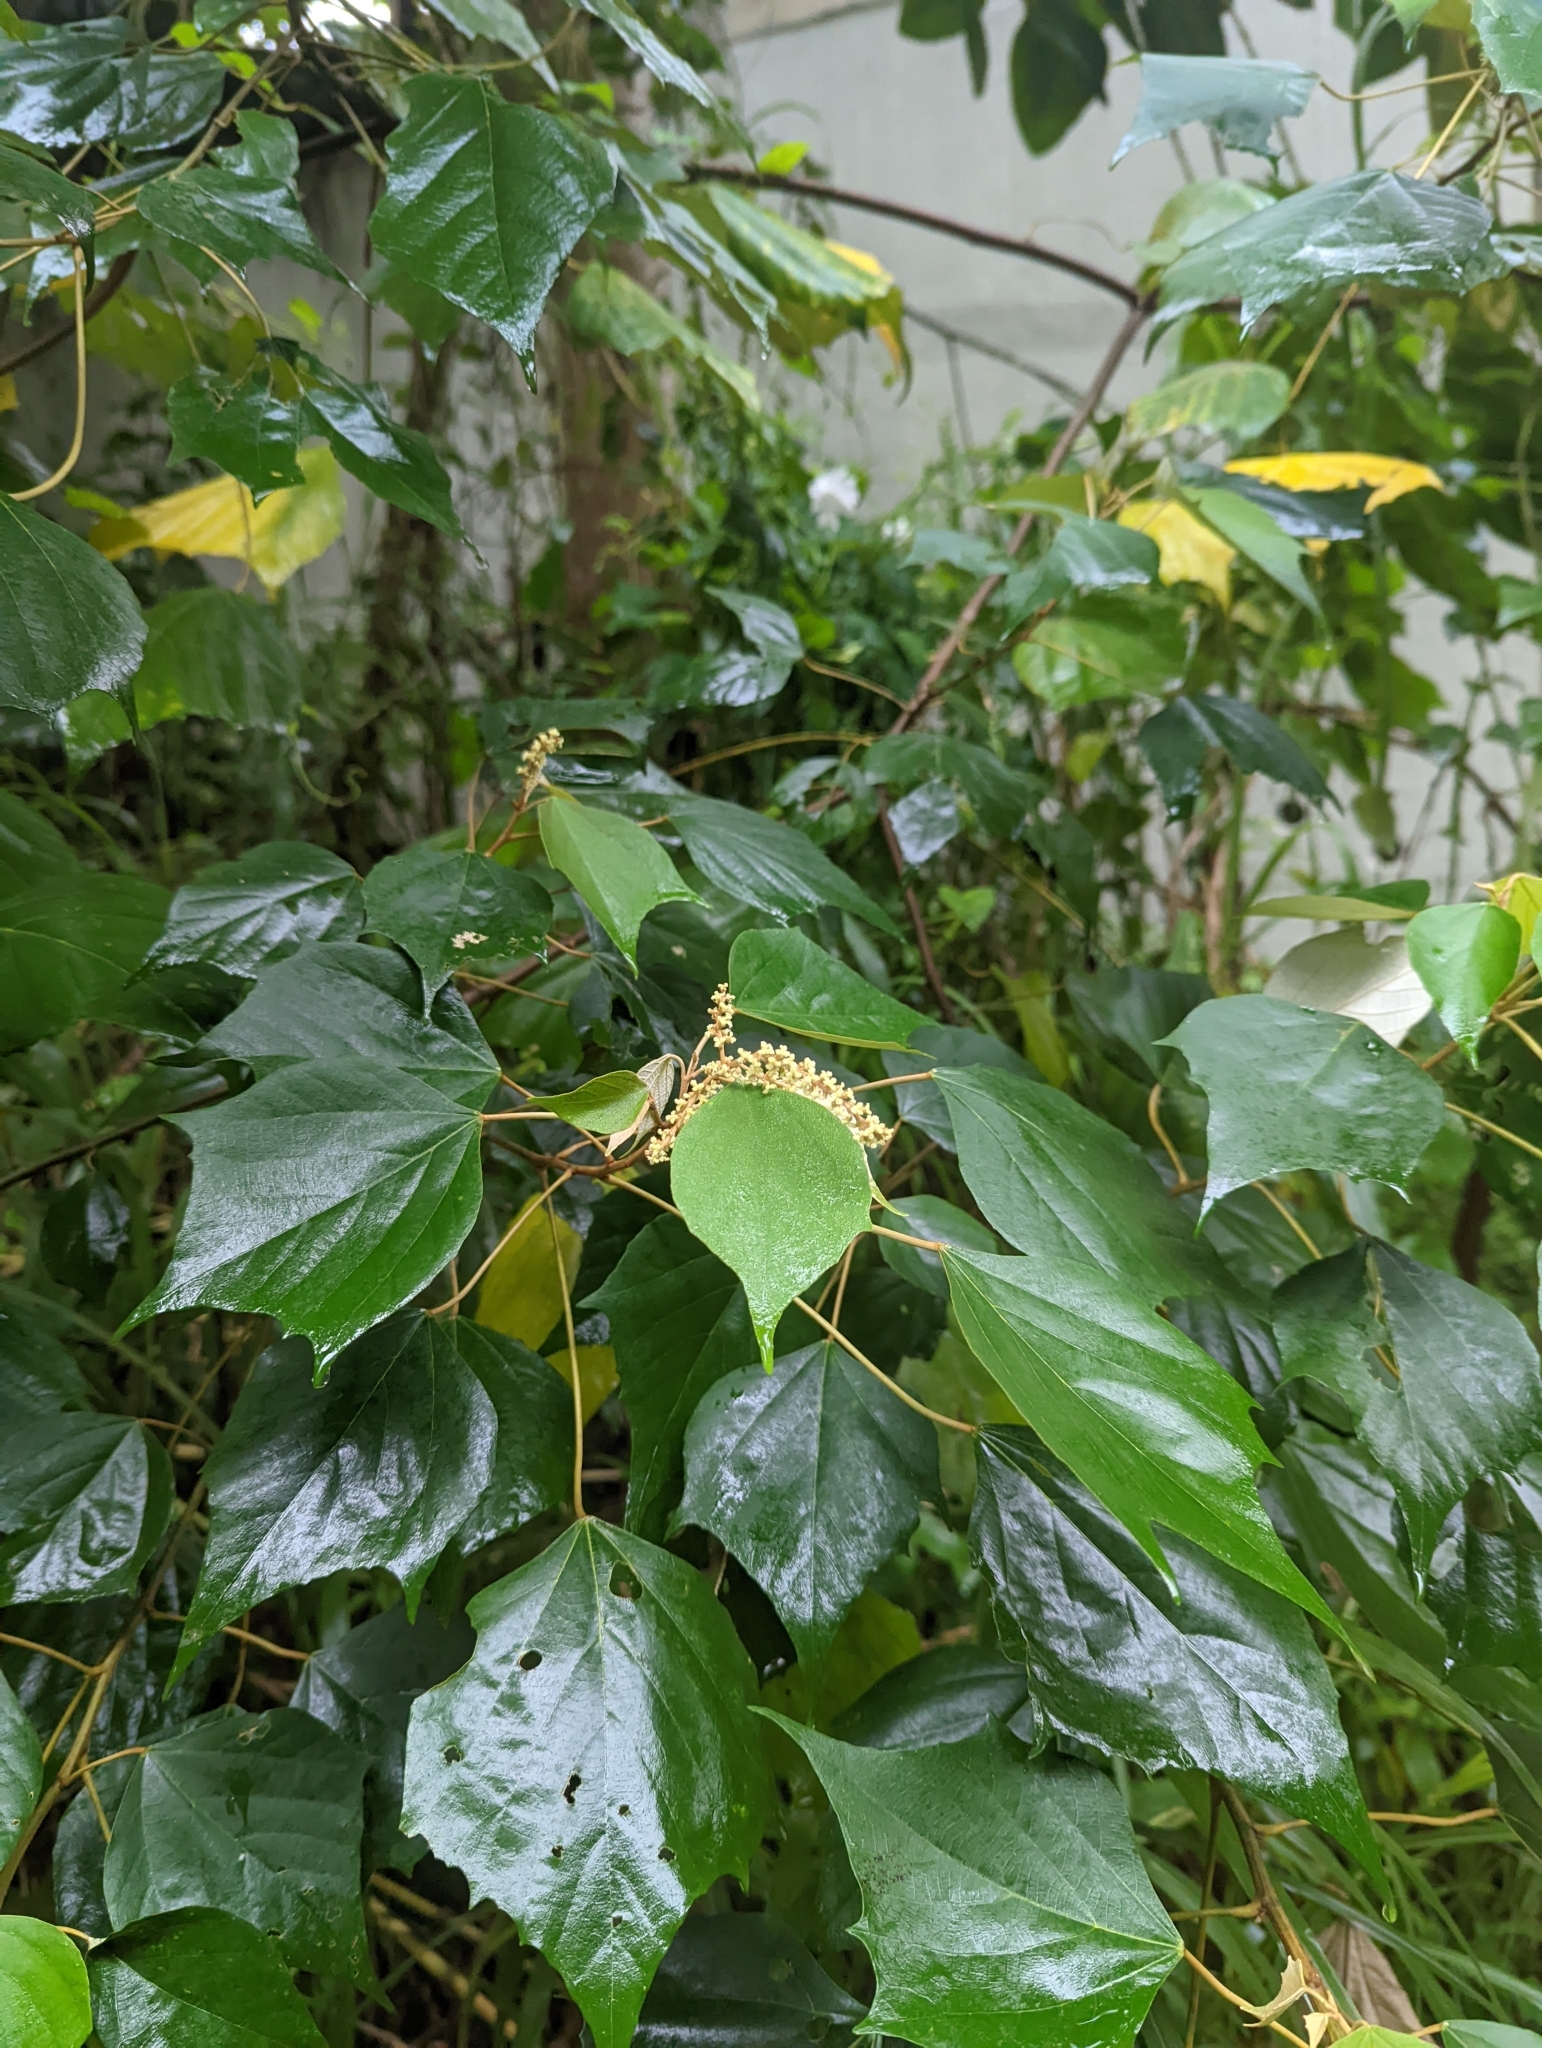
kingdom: Plantae
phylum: Tracheophyta
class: Magnoliopsida
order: Malpighiales
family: Euphorbiaceae
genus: Mallotus
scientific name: Mallotus paniculatus
